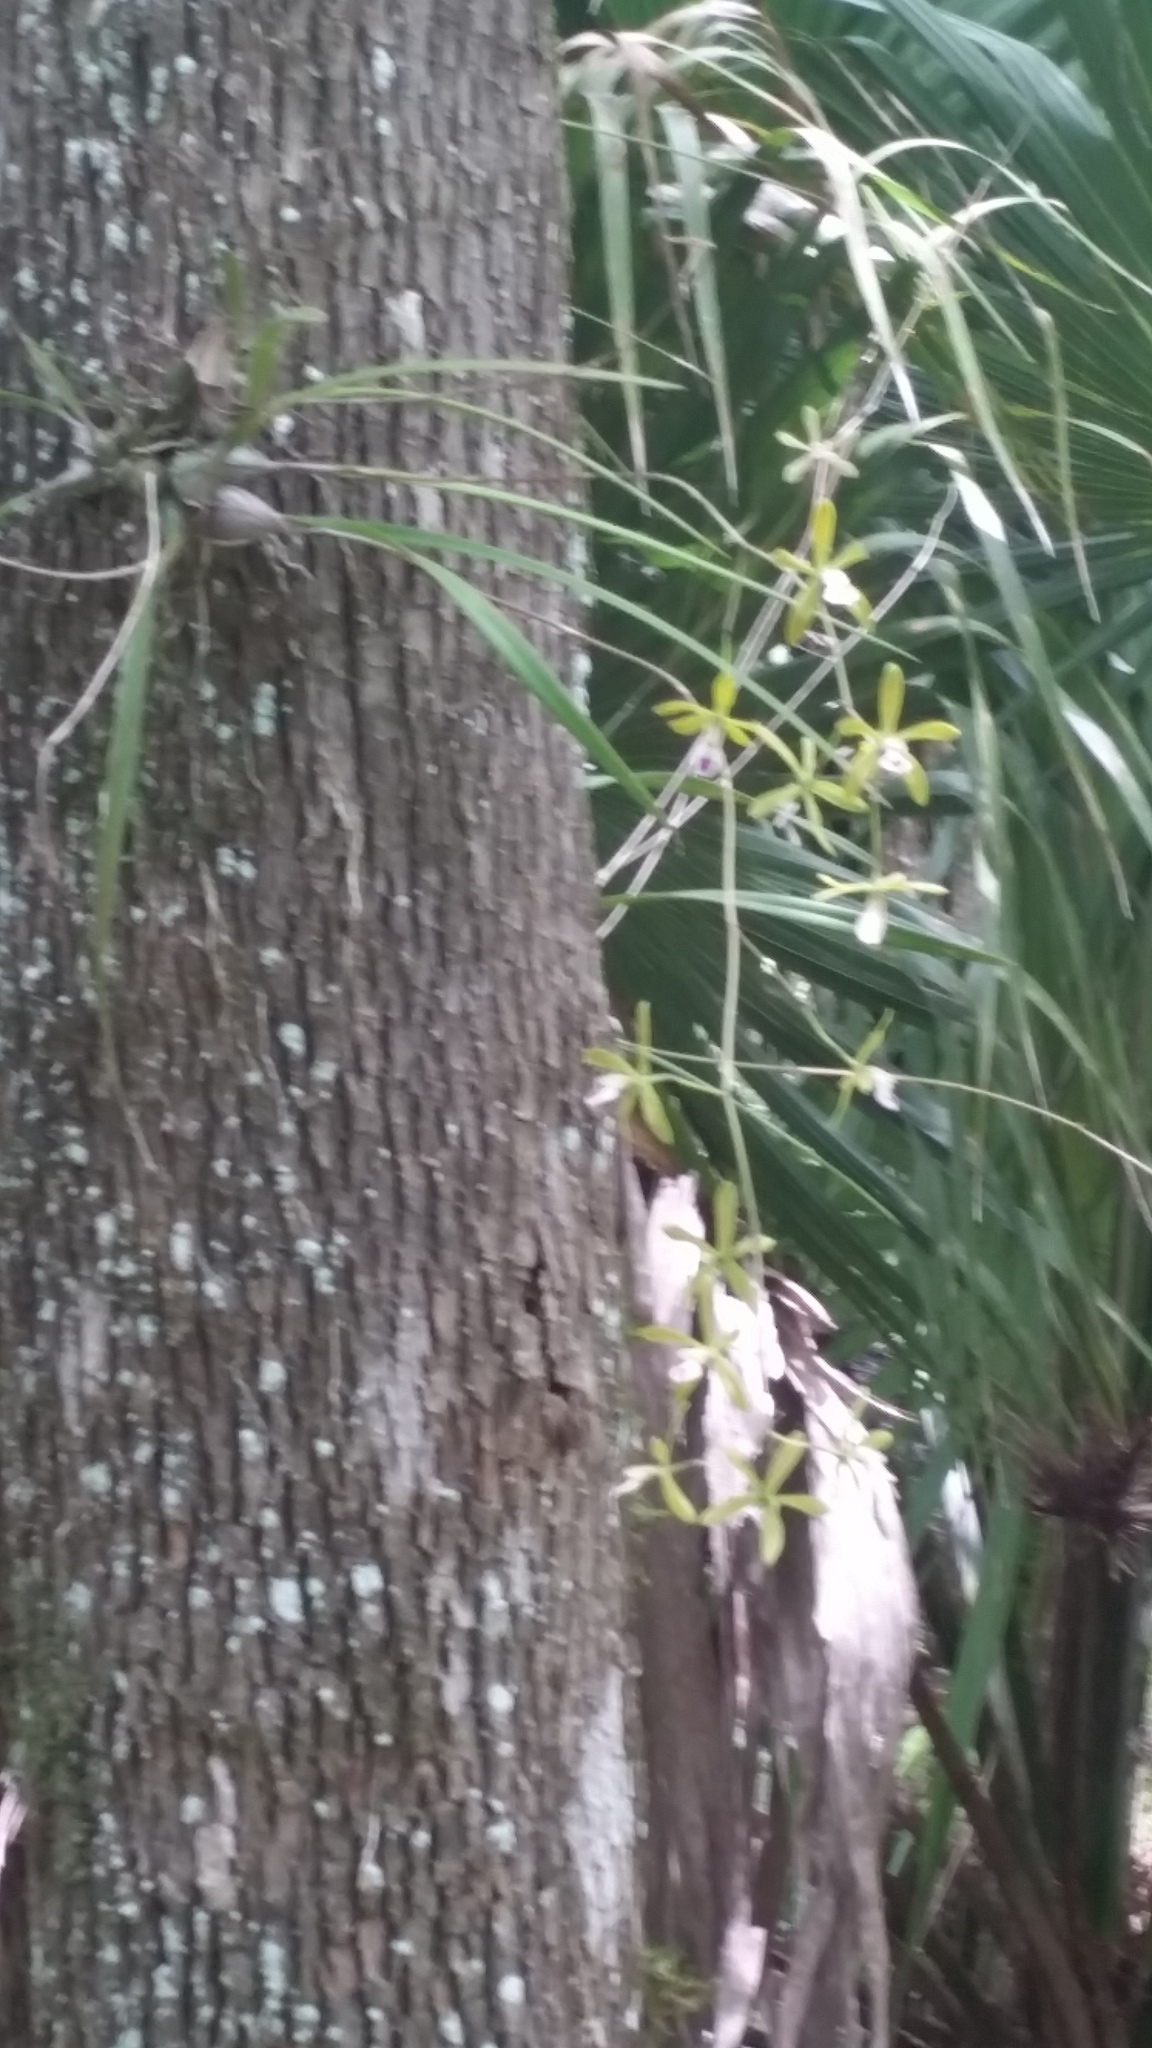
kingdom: Plantae
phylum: Tracheophyta
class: Liliopsida
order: Asparagales
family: Orchidaceae
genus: Encyclia
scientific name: Encyclia tampensis
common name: Florida butterfly orchid
